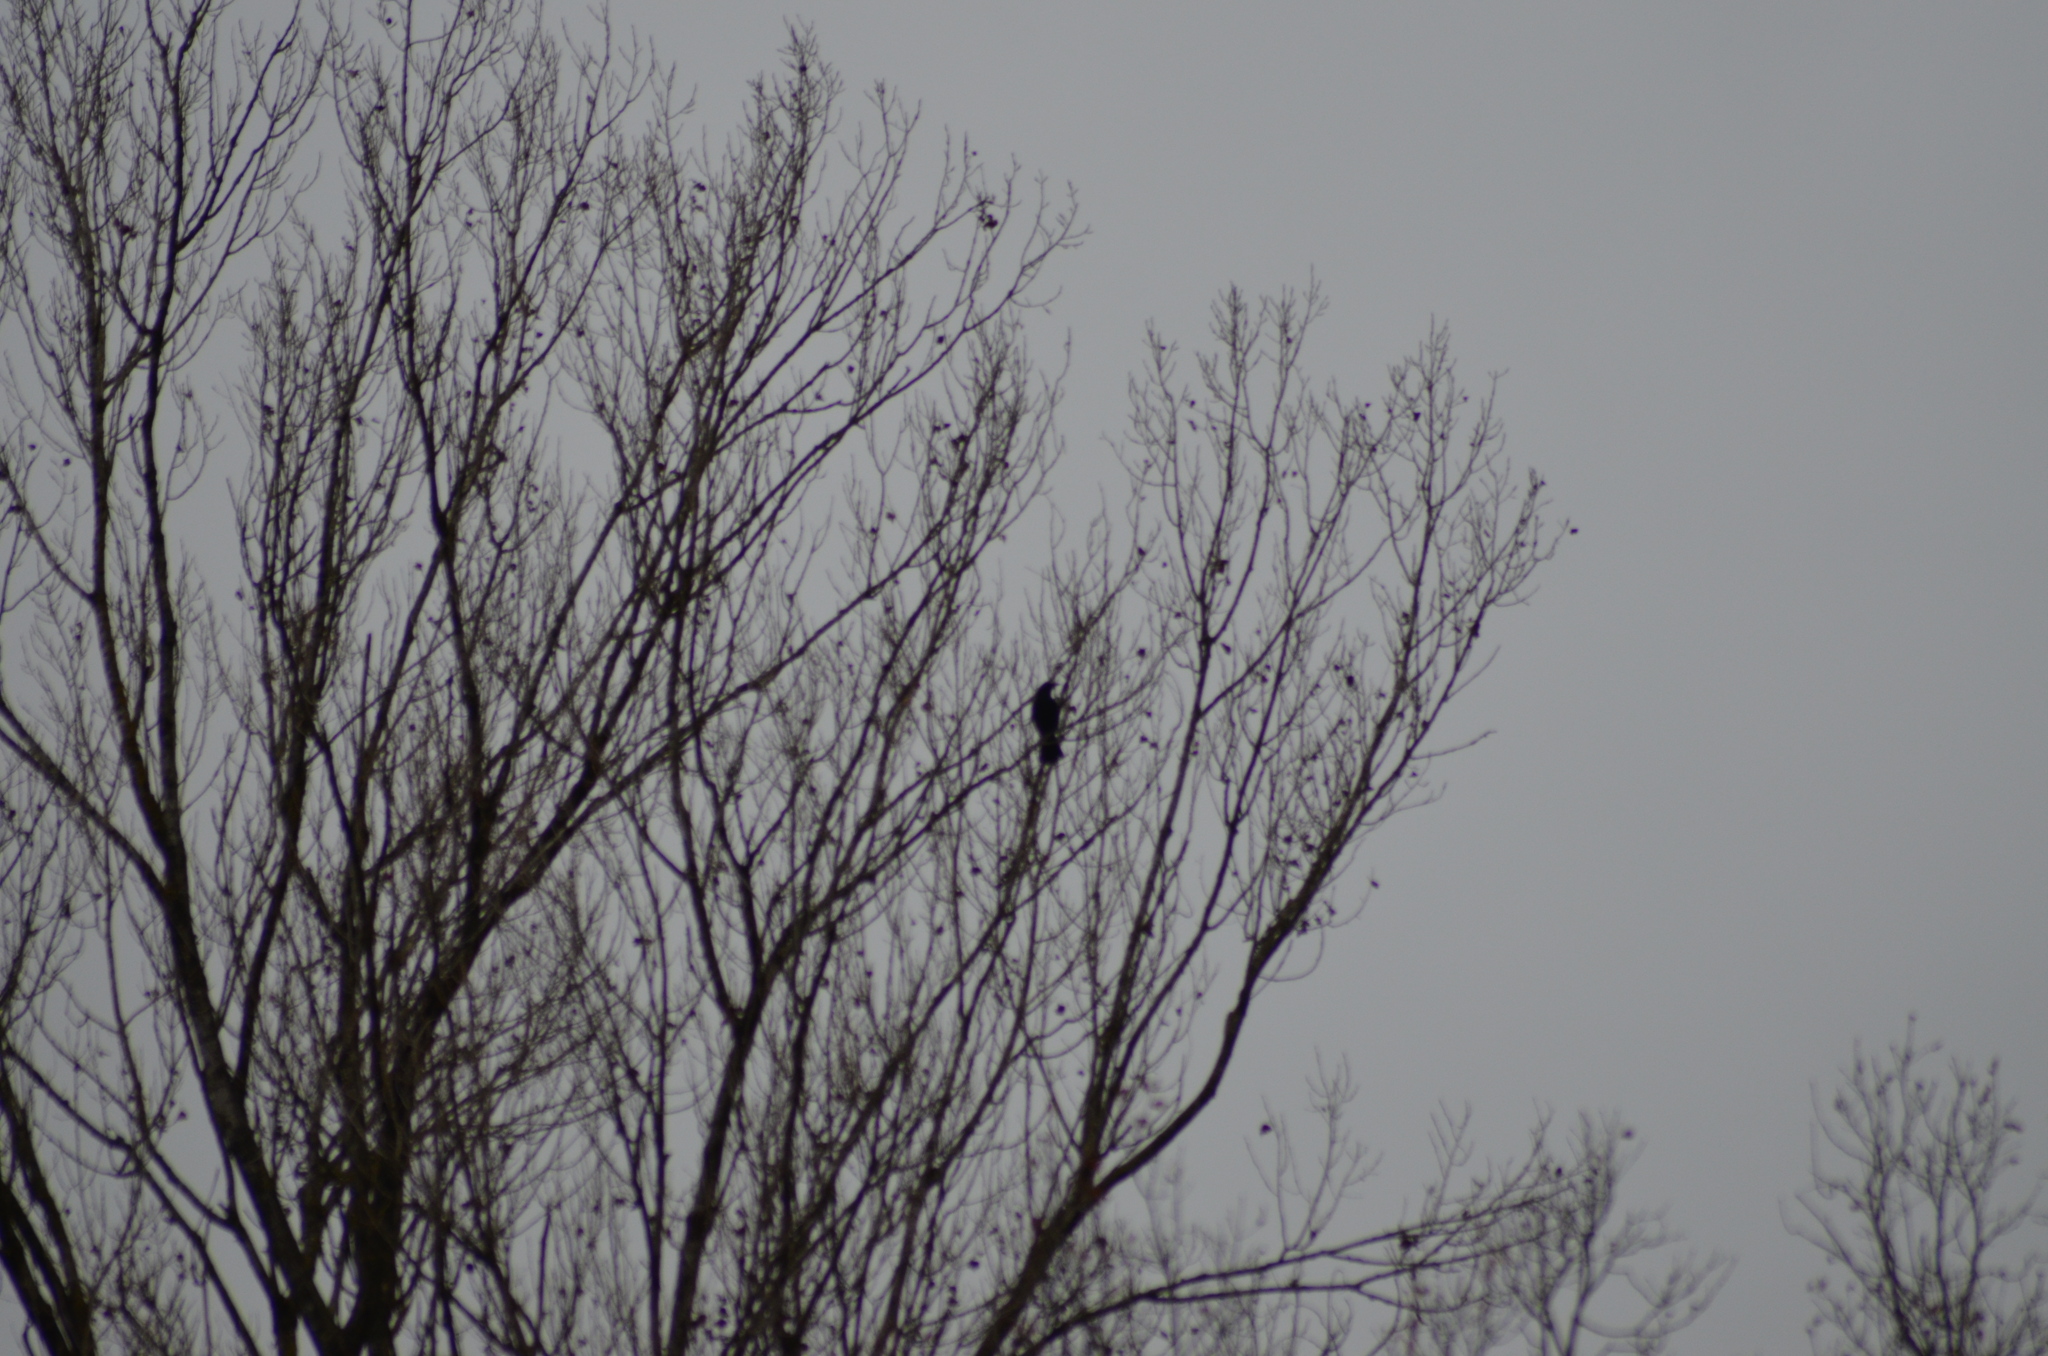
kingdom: Animalia
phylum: Chordata
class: Aves
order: Passeriformes
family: Corvidae
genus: Corvus
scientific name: Corvus corone
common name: Carrion crow
